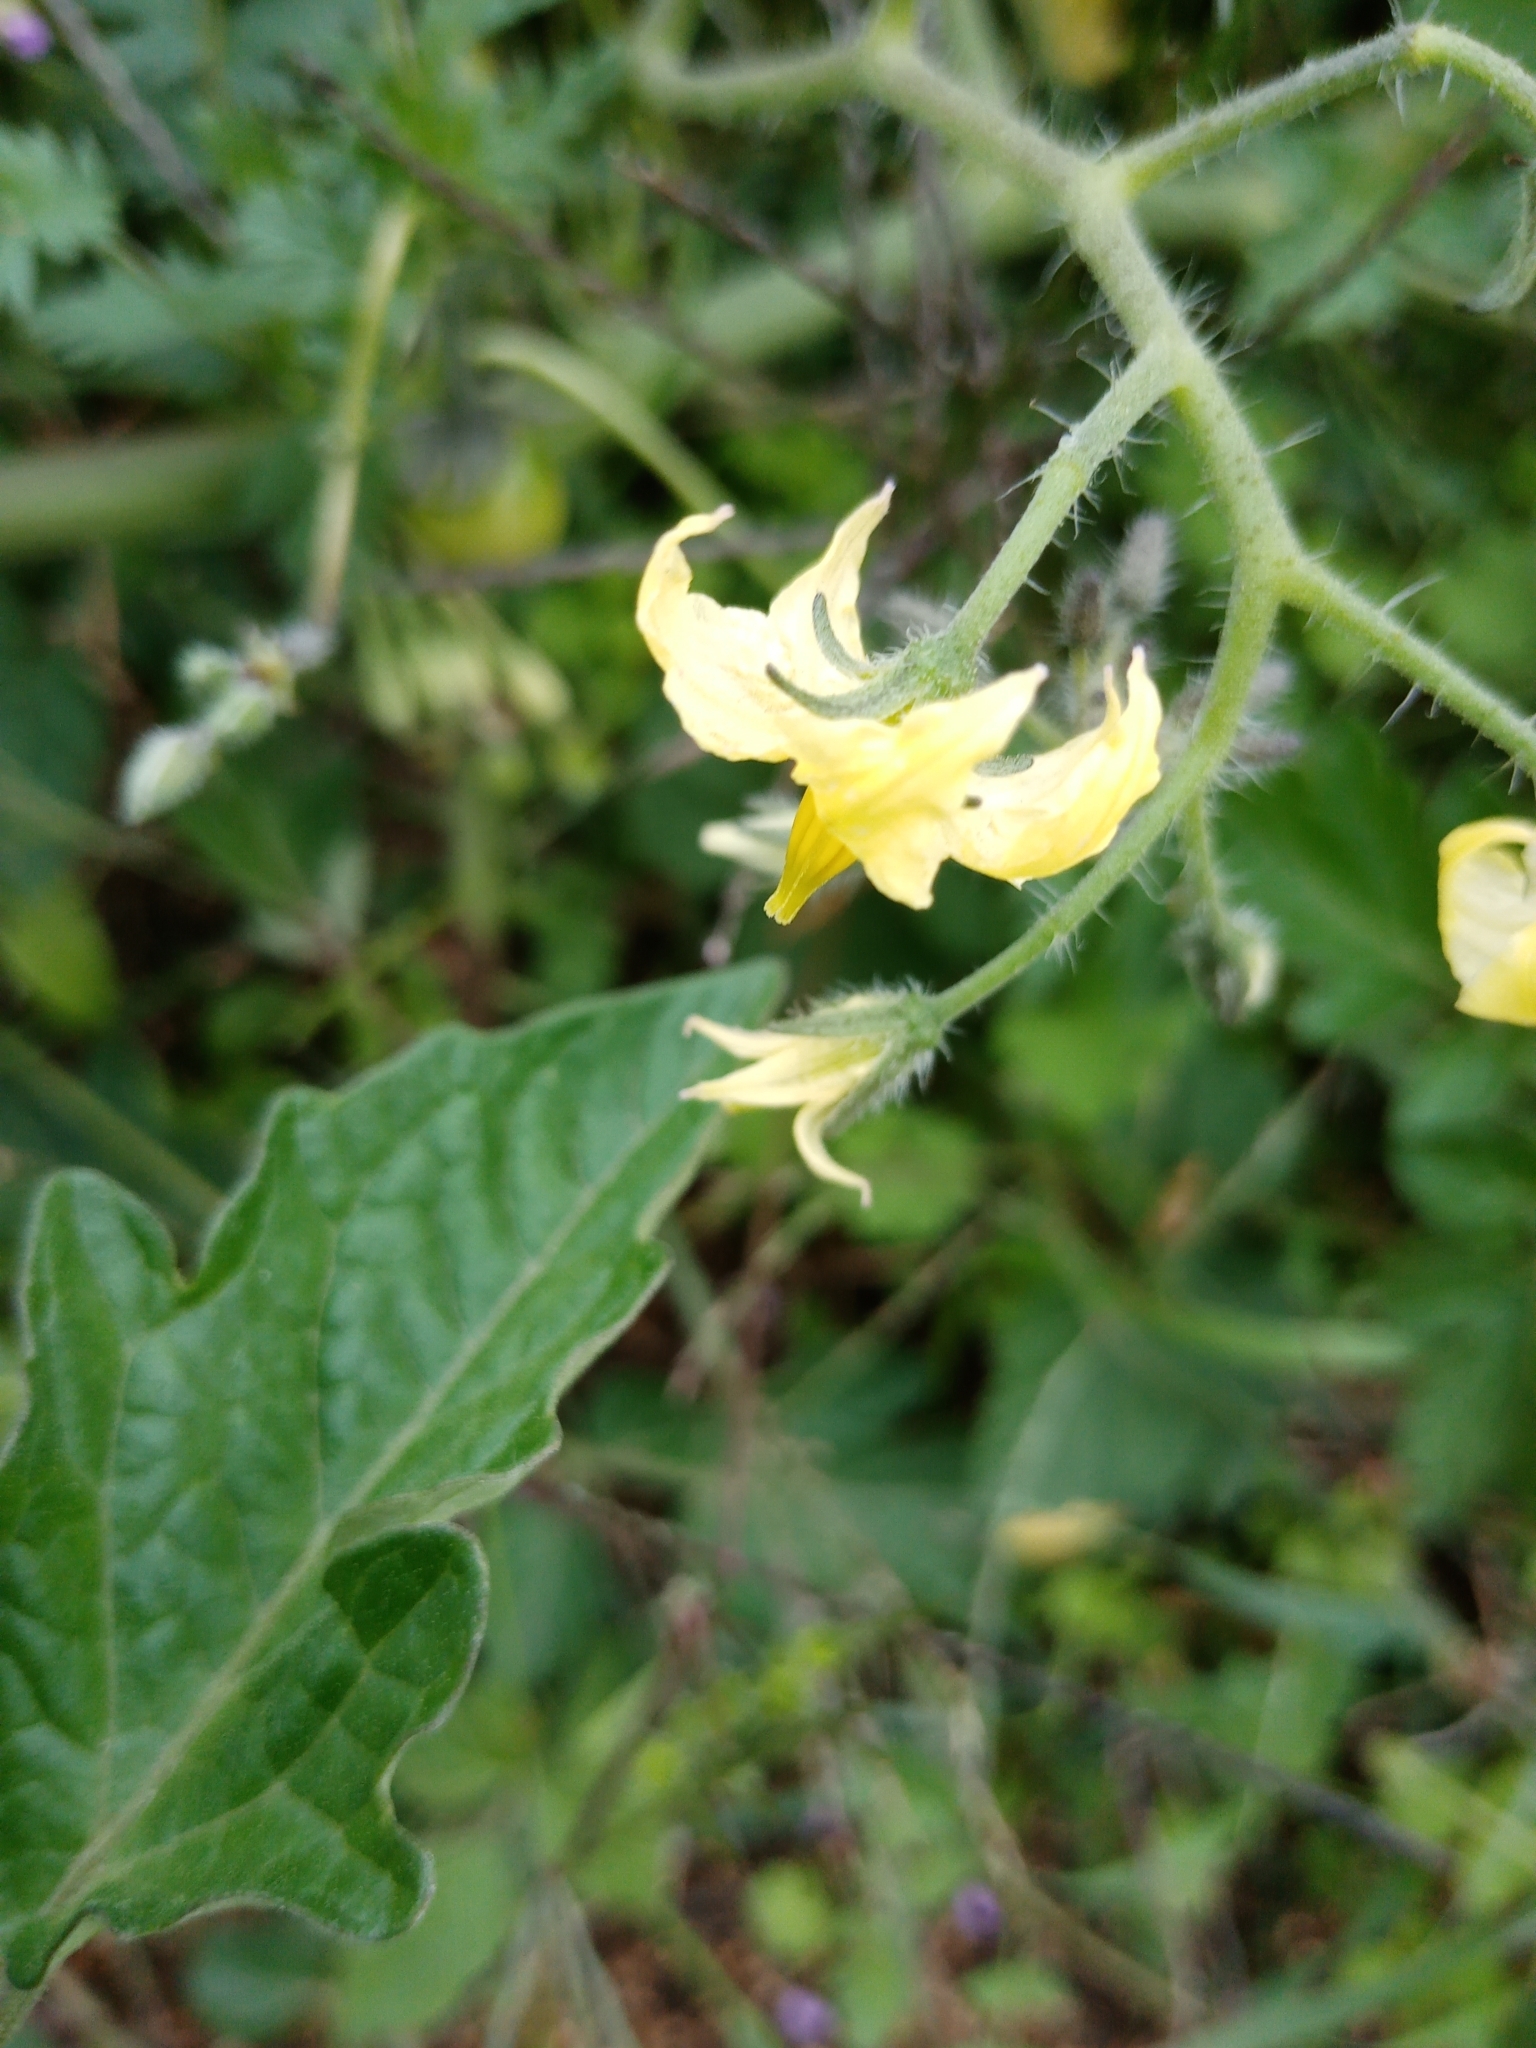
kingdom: Plantae
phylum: Tracheophyta
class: Magnoliopsida
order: Solanales
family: Solanaceae
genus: Solanum
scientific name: Solanum lycopersicum
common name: Garden tomato
